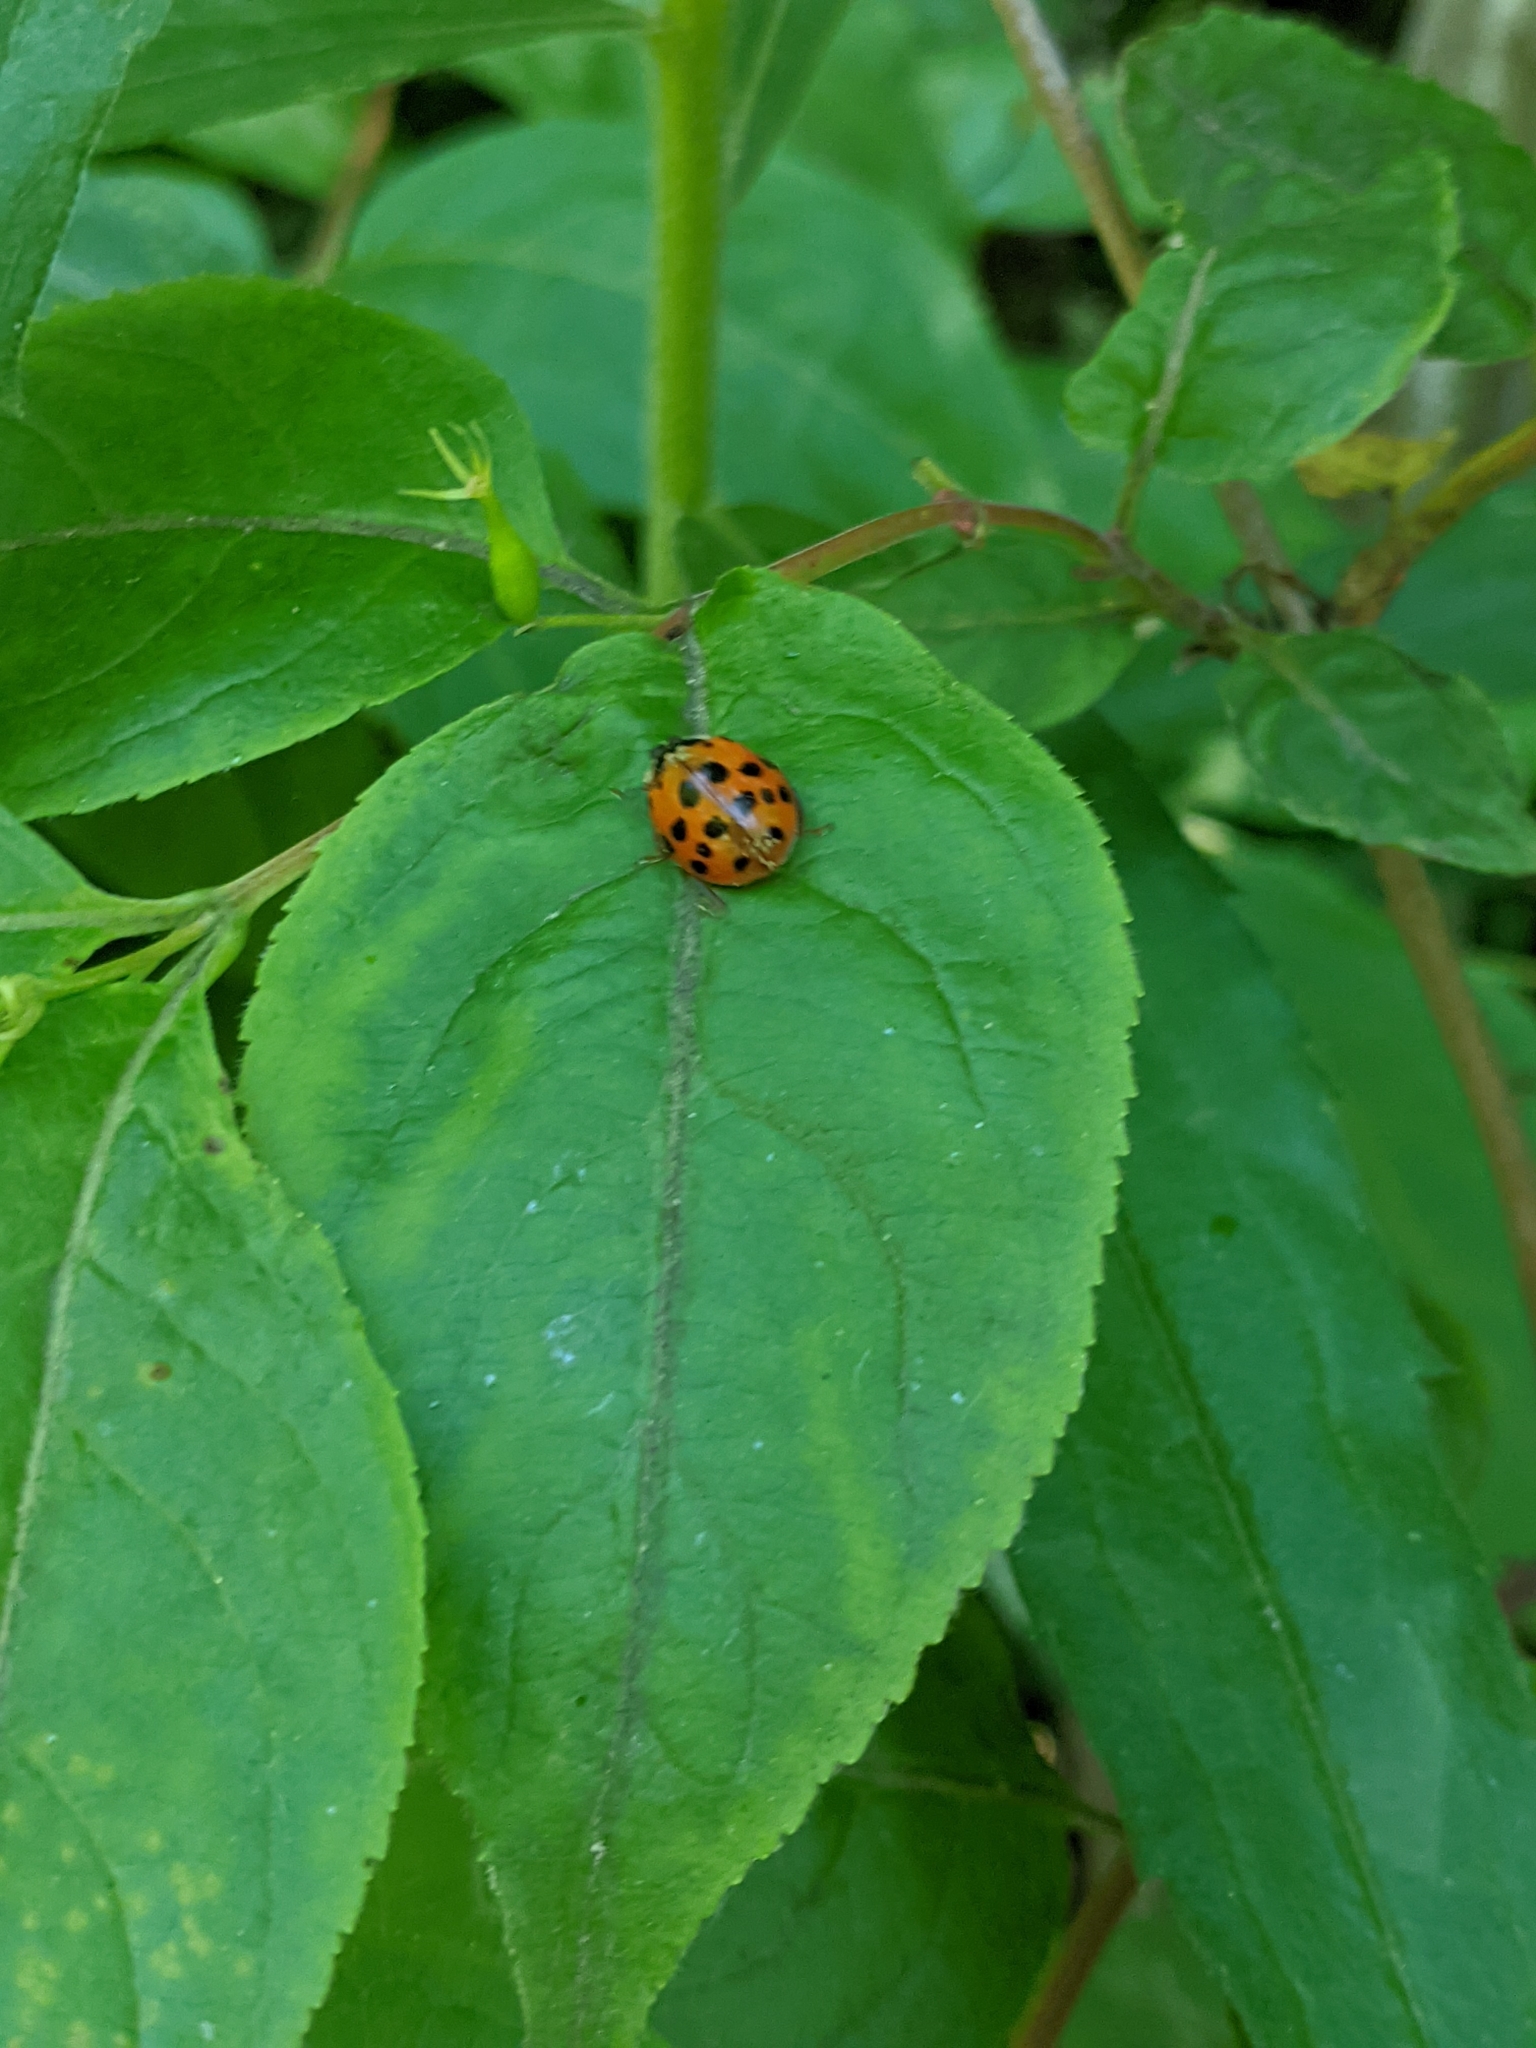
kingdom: Animalia
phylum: Arthropoda
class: Insecta
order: Coleoptera
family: Coccinellidae
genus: Harmonia
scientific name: Harmonia axyridis
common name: Harlequin ladybird
